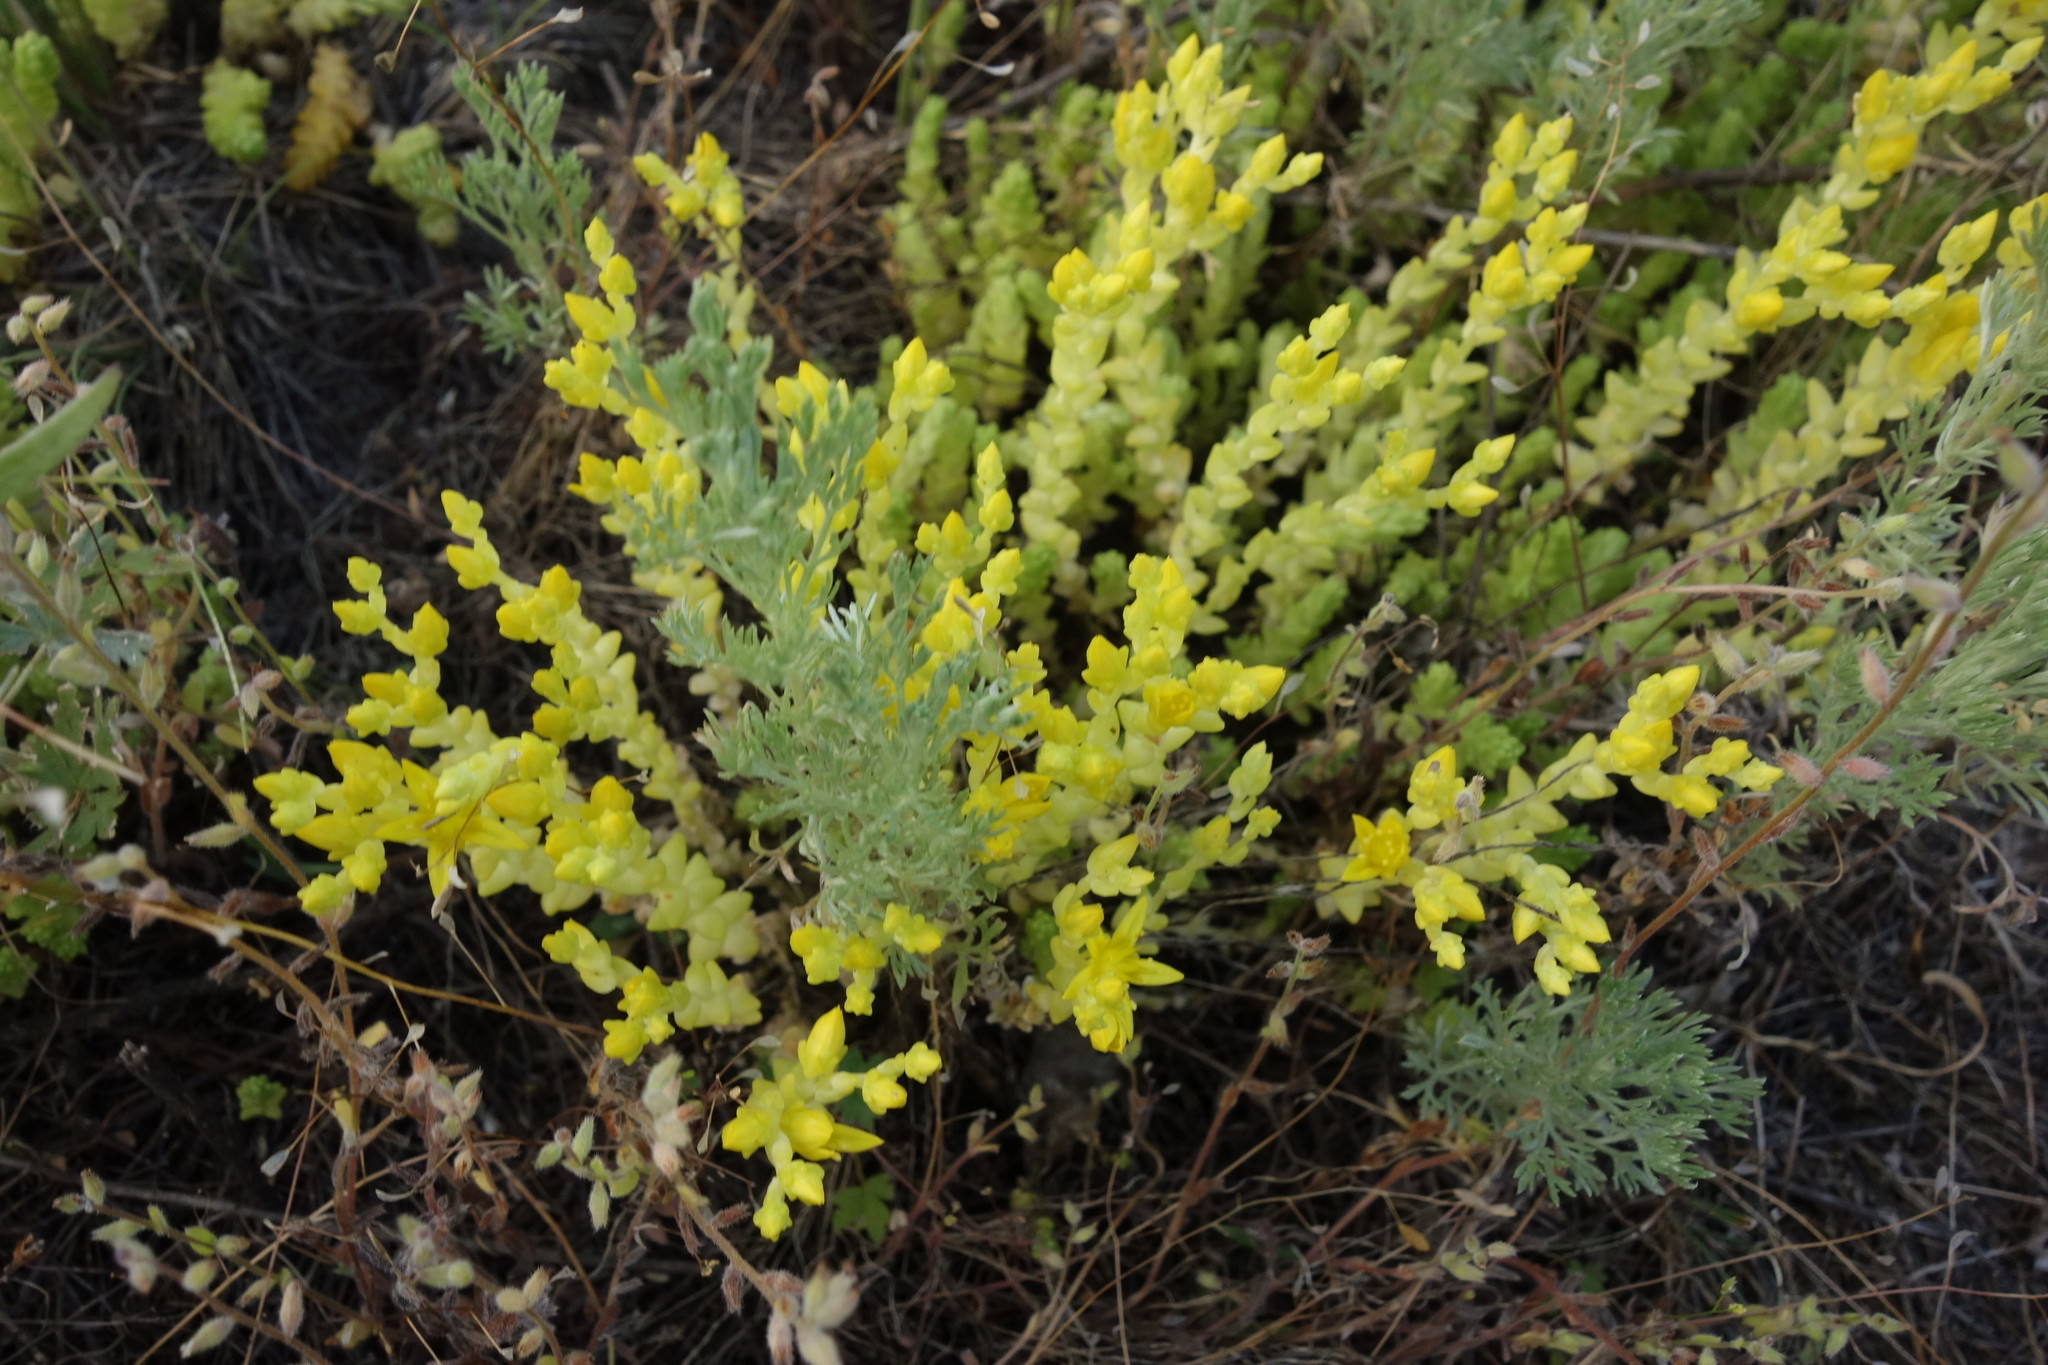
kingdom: Plantae
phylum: Tracheophyta
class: Magnoliopsida
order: Saxifragales
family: Crassulaceae
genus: Sedum
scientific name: Sedum acre
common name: Biting stonecrop
